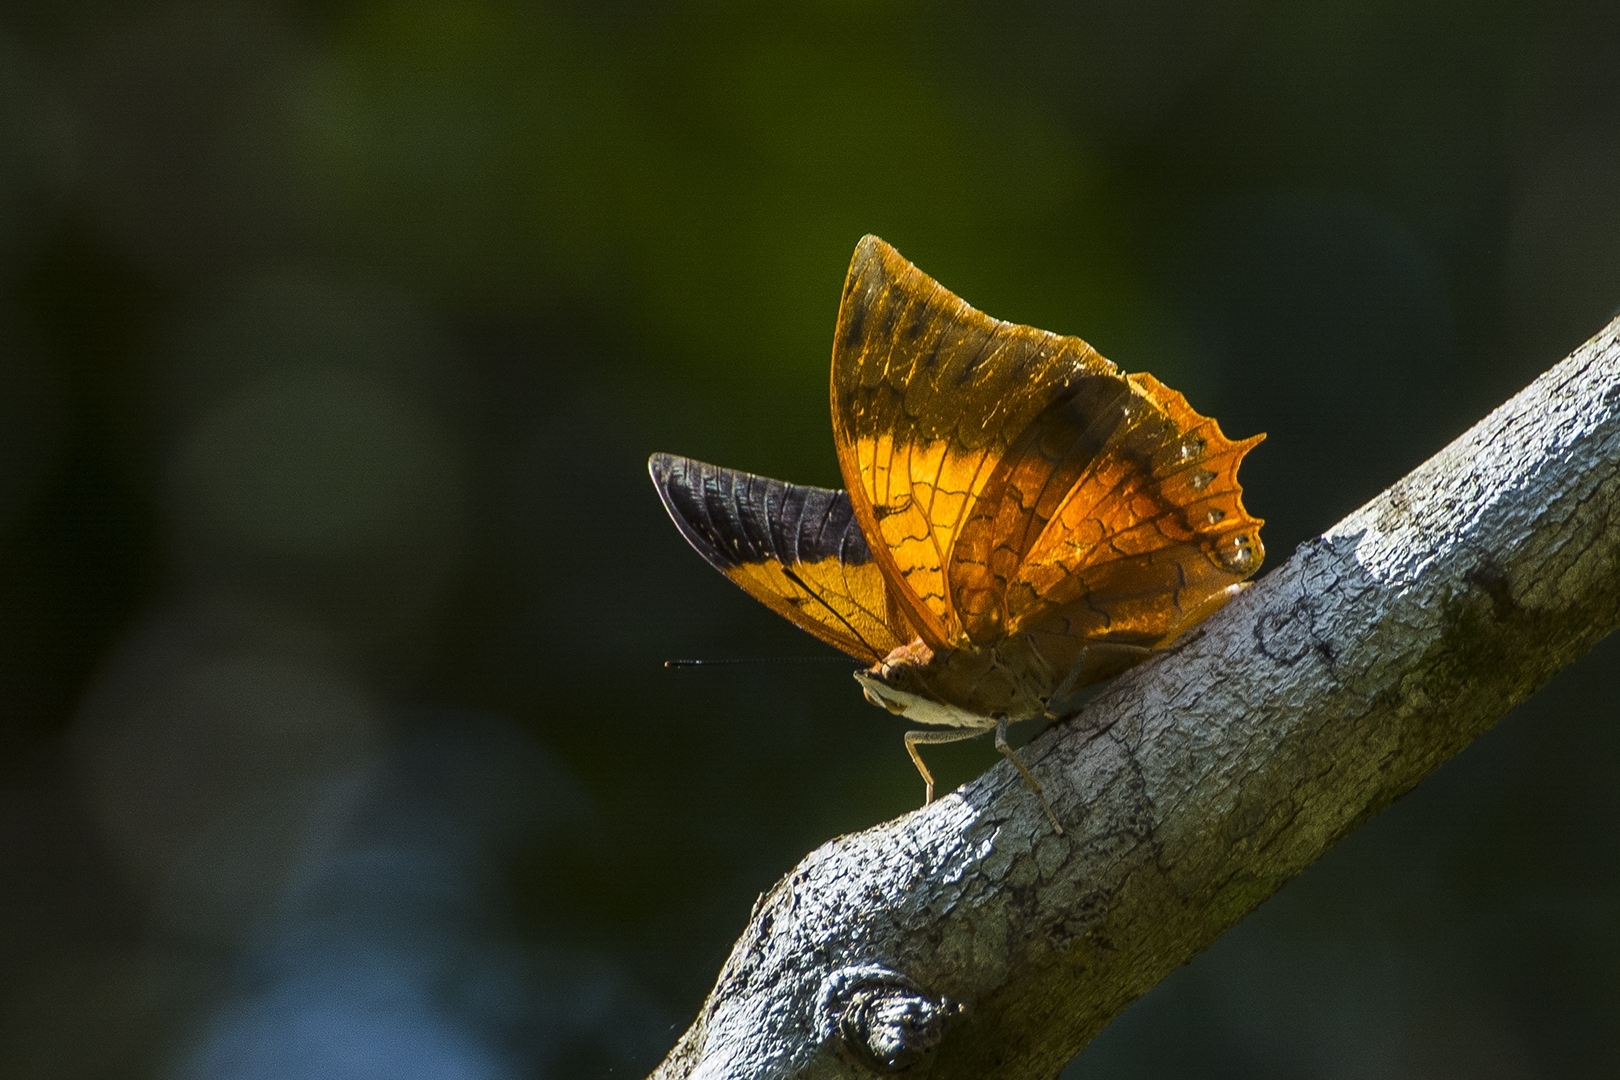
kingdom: Animalia
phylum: Arthropoda
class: Insecta
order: Lepidoptera
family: Nymphalidae
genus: Charaxes
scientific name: Charaxes psaphon
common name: Plain tawny rajah
